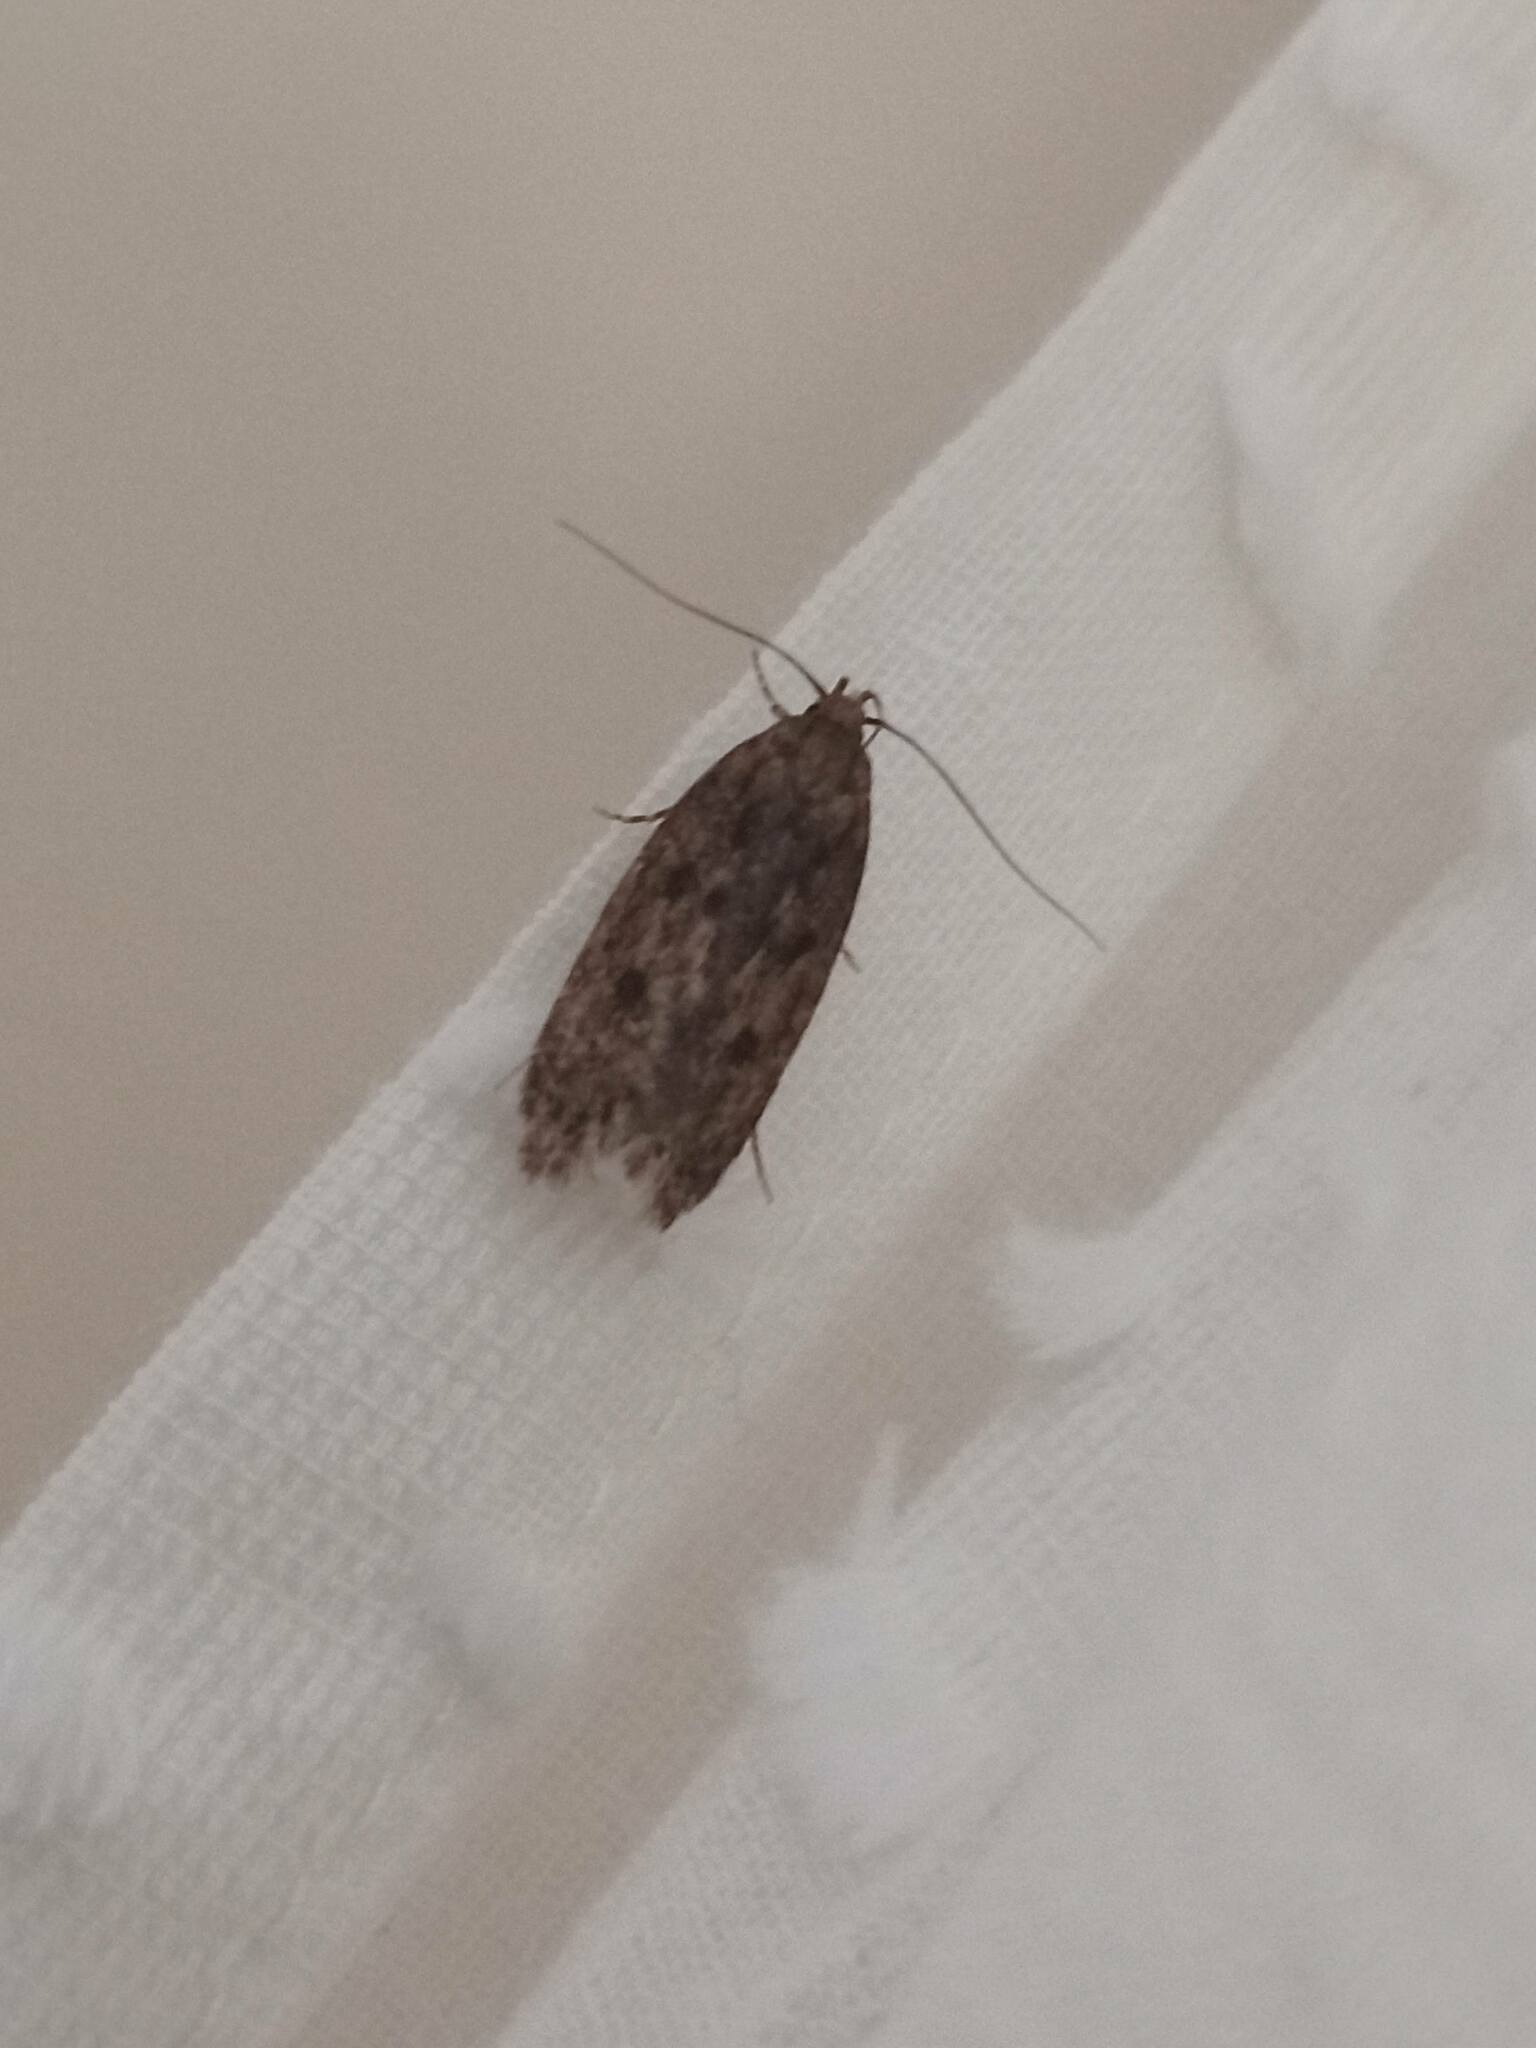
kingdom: Animalia
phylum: Arthropoda
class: Insecta
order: Lepidoptera
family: Oecophoridae
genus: Hofmannophila
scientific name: Hofmannophila pseudospretella
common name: Brown house moth
